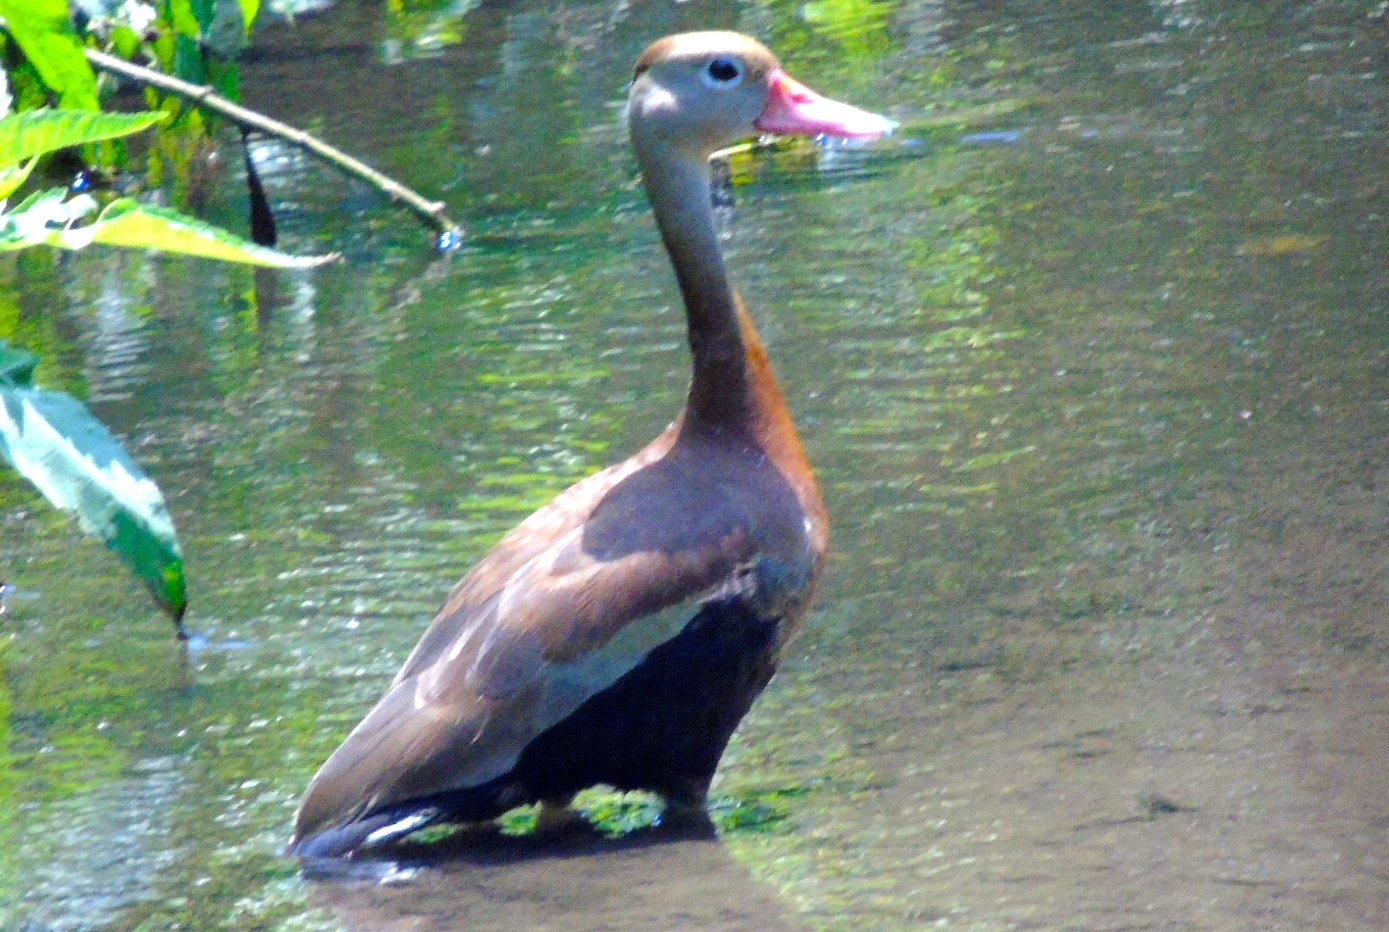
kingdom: Animalia
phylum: Chordata
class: Aves
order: Anseriformes
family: Anatidae
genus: Dendrocygna
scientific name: Dendrocygna autumnalis
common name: Black-bellied whistling duck
